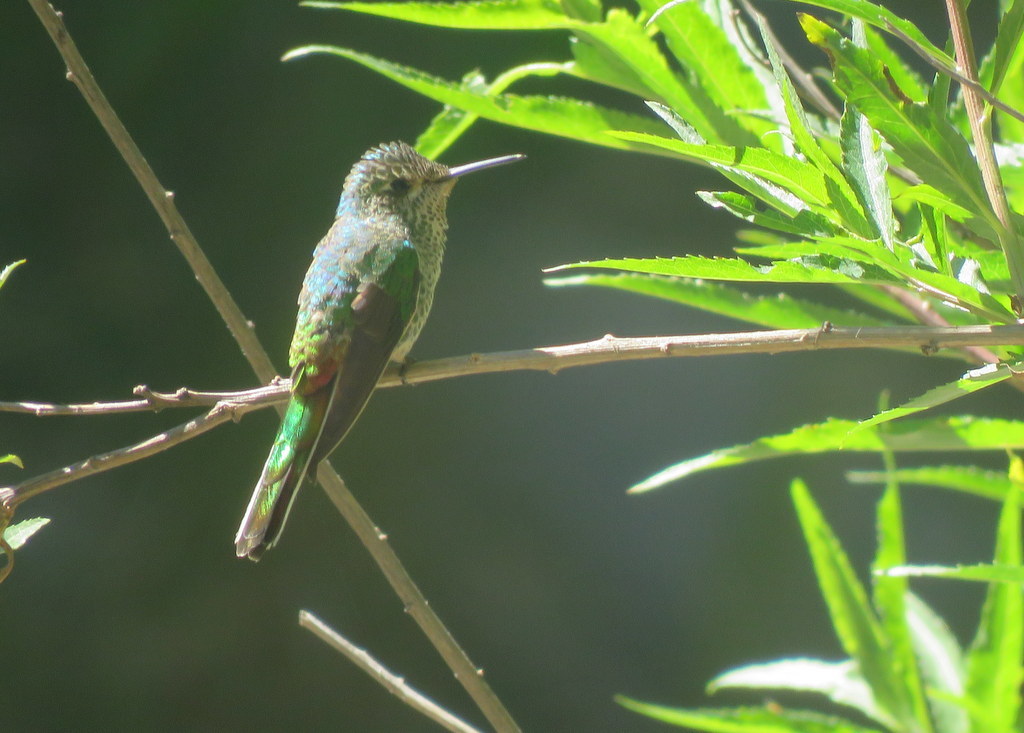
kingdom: Animalia
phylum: Chordata
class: Aves
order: Apodiformes
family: Trochilidae
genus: Sappho
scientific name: Sappho sparganurus
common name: Red-tailed comet
